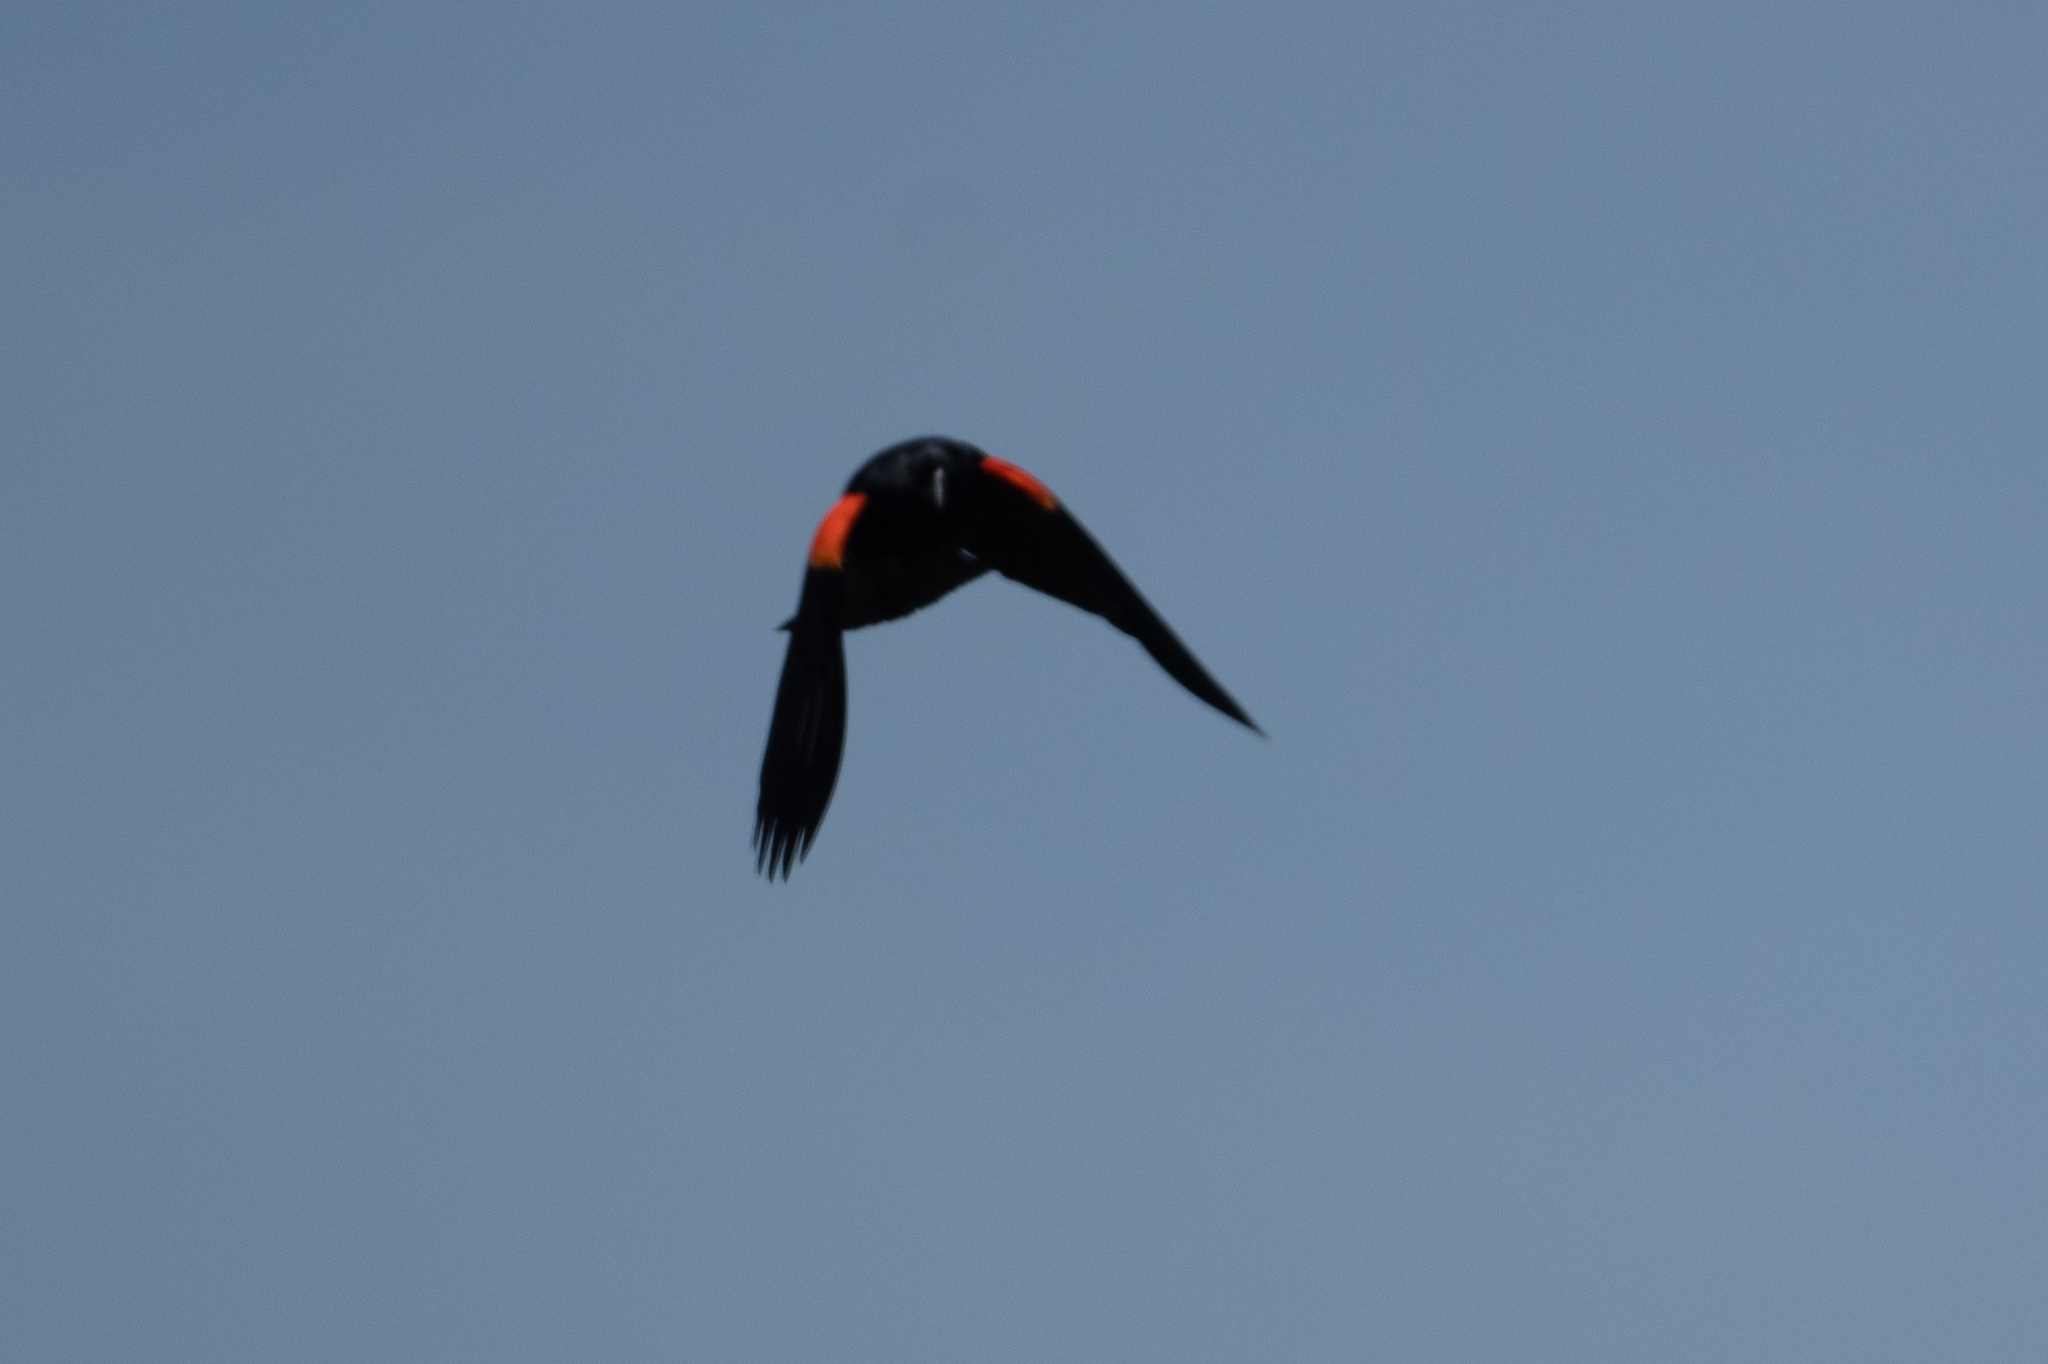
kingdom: Animalia
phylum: Chordata
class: Aves
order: Passeriformes
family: Icteridae
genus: Agelaius
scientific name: Agelaius phoeniceus
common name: Red-winged blackbird
